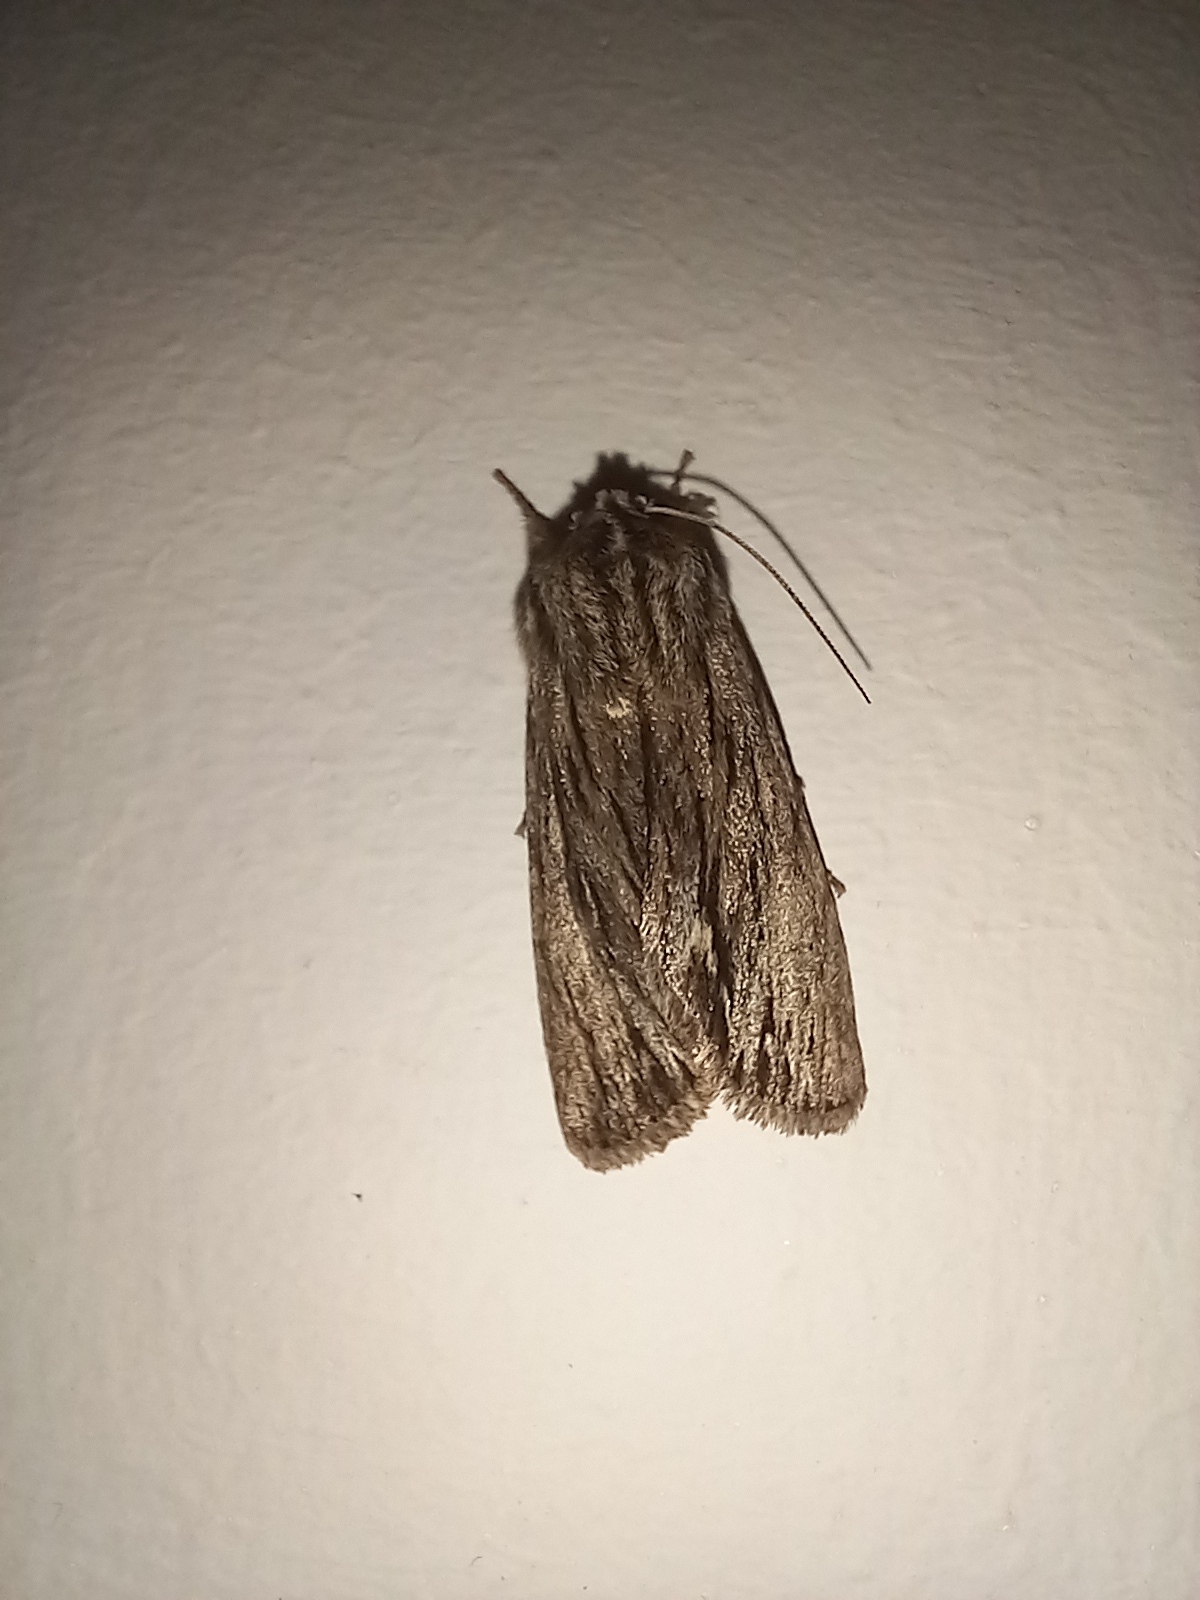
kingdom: Animalia
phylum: Arthropoda
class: Insecta
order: Lepidoptera
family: Noctuidae
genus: Asteroscopus
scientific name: Asteroscopus sphinx
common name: The sprawler
